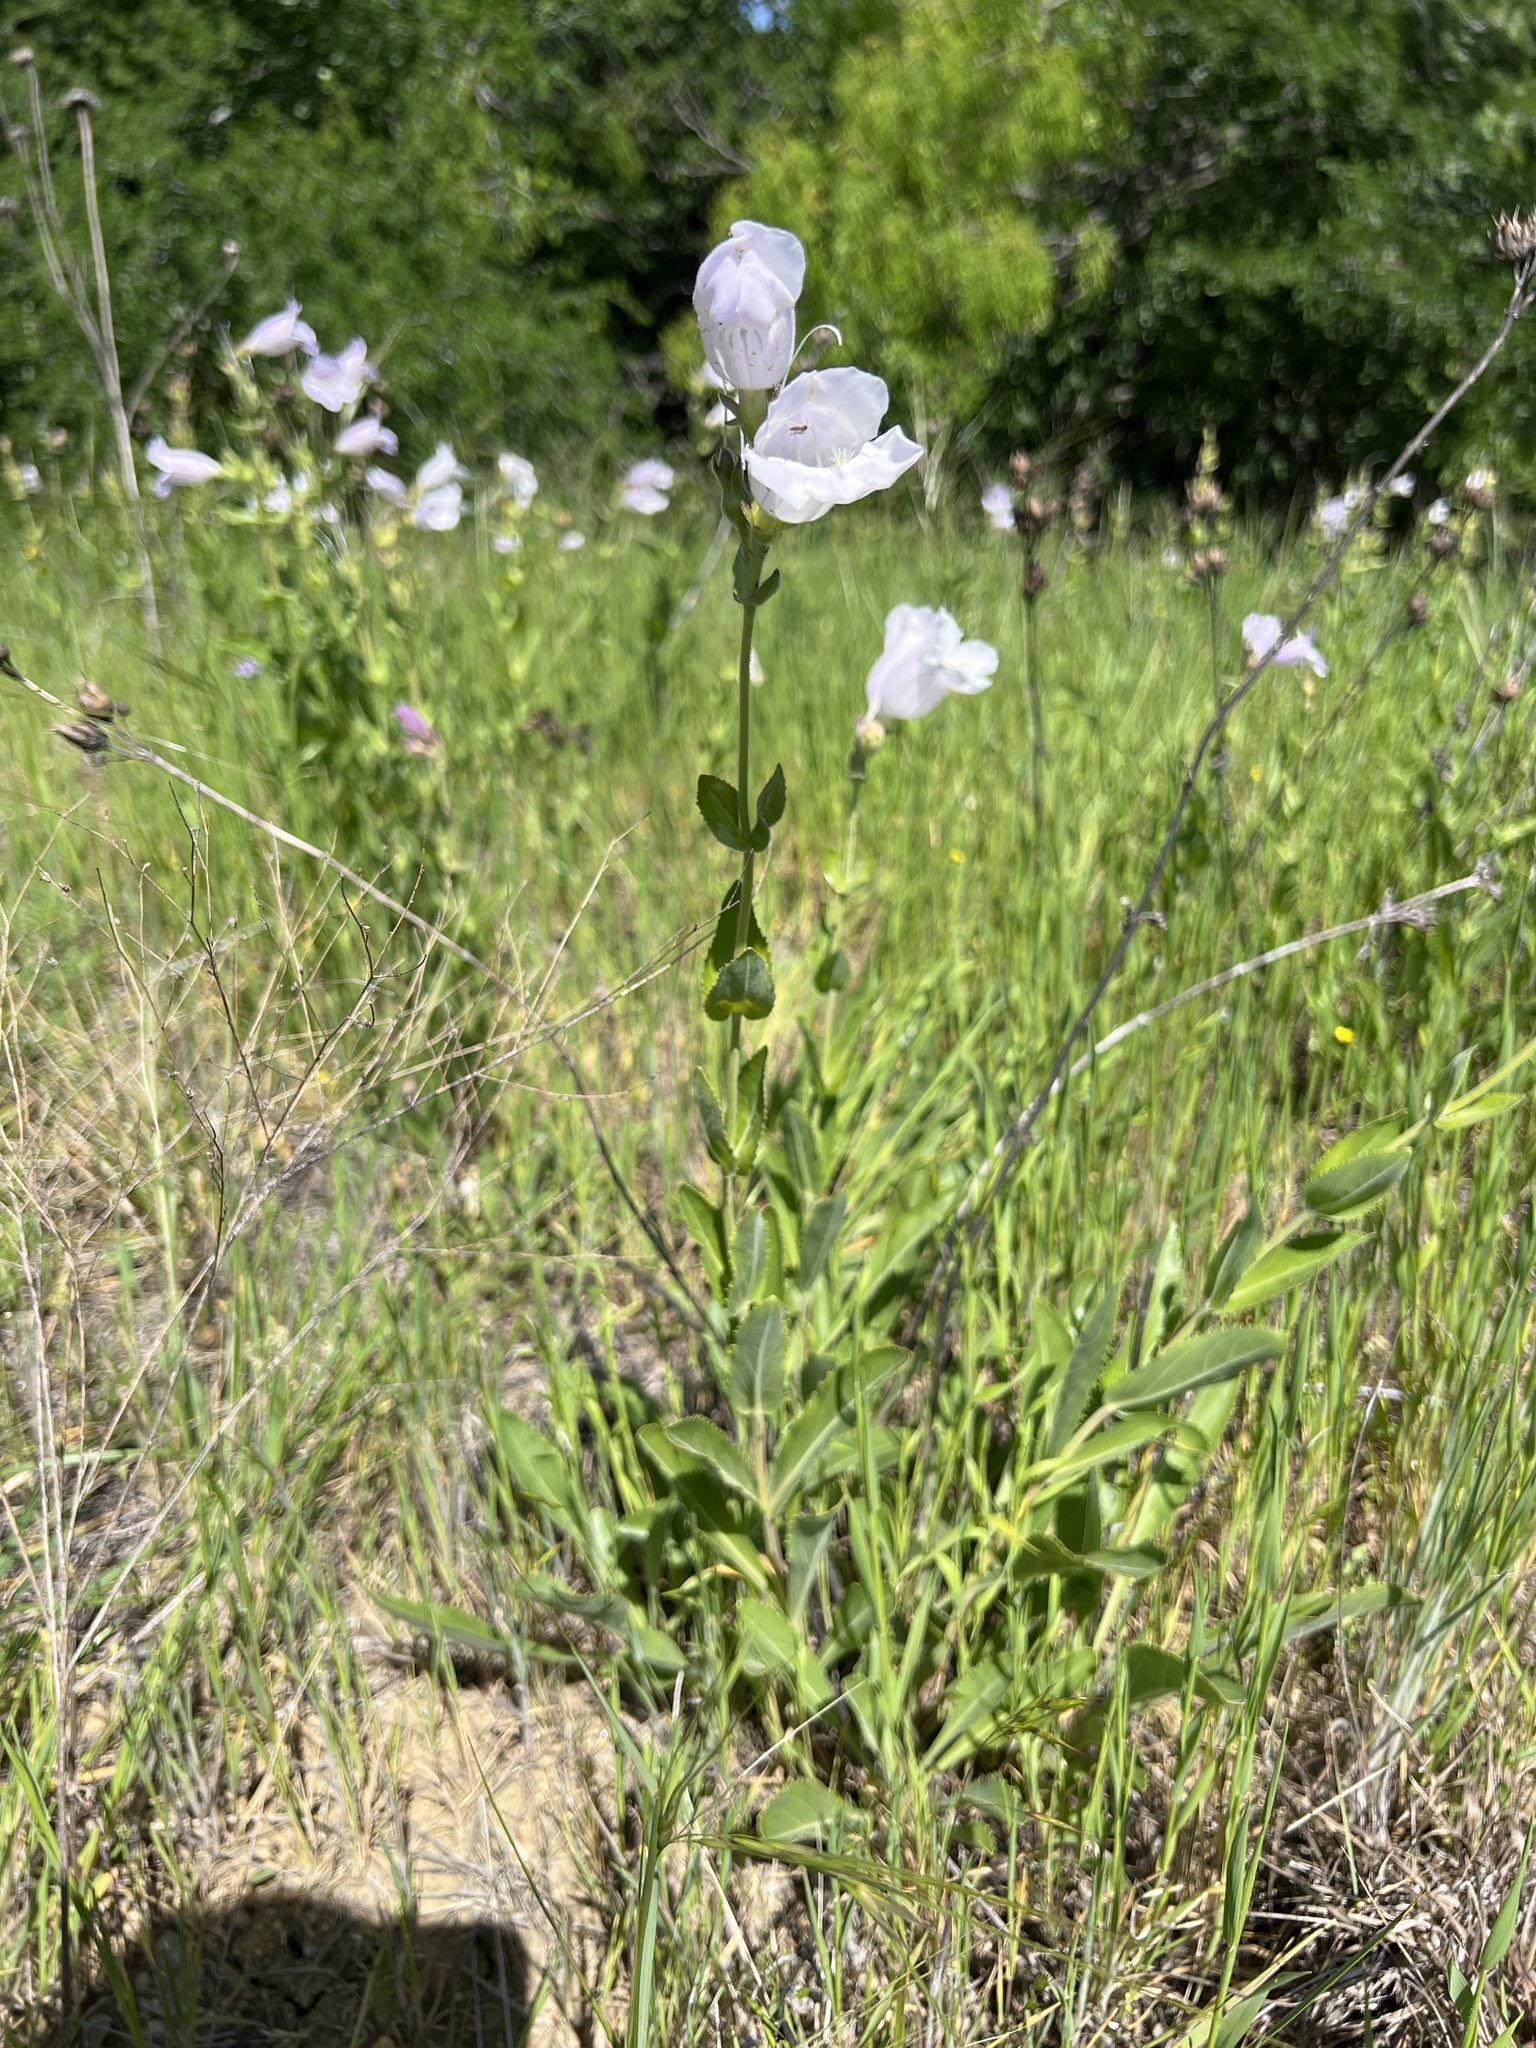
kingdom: Plantae
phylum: Tracheophyta
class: Magnoliopsida
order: Lamiales
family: Plantaginaceae
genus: Penstemon
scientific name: Penstemon cobaea
